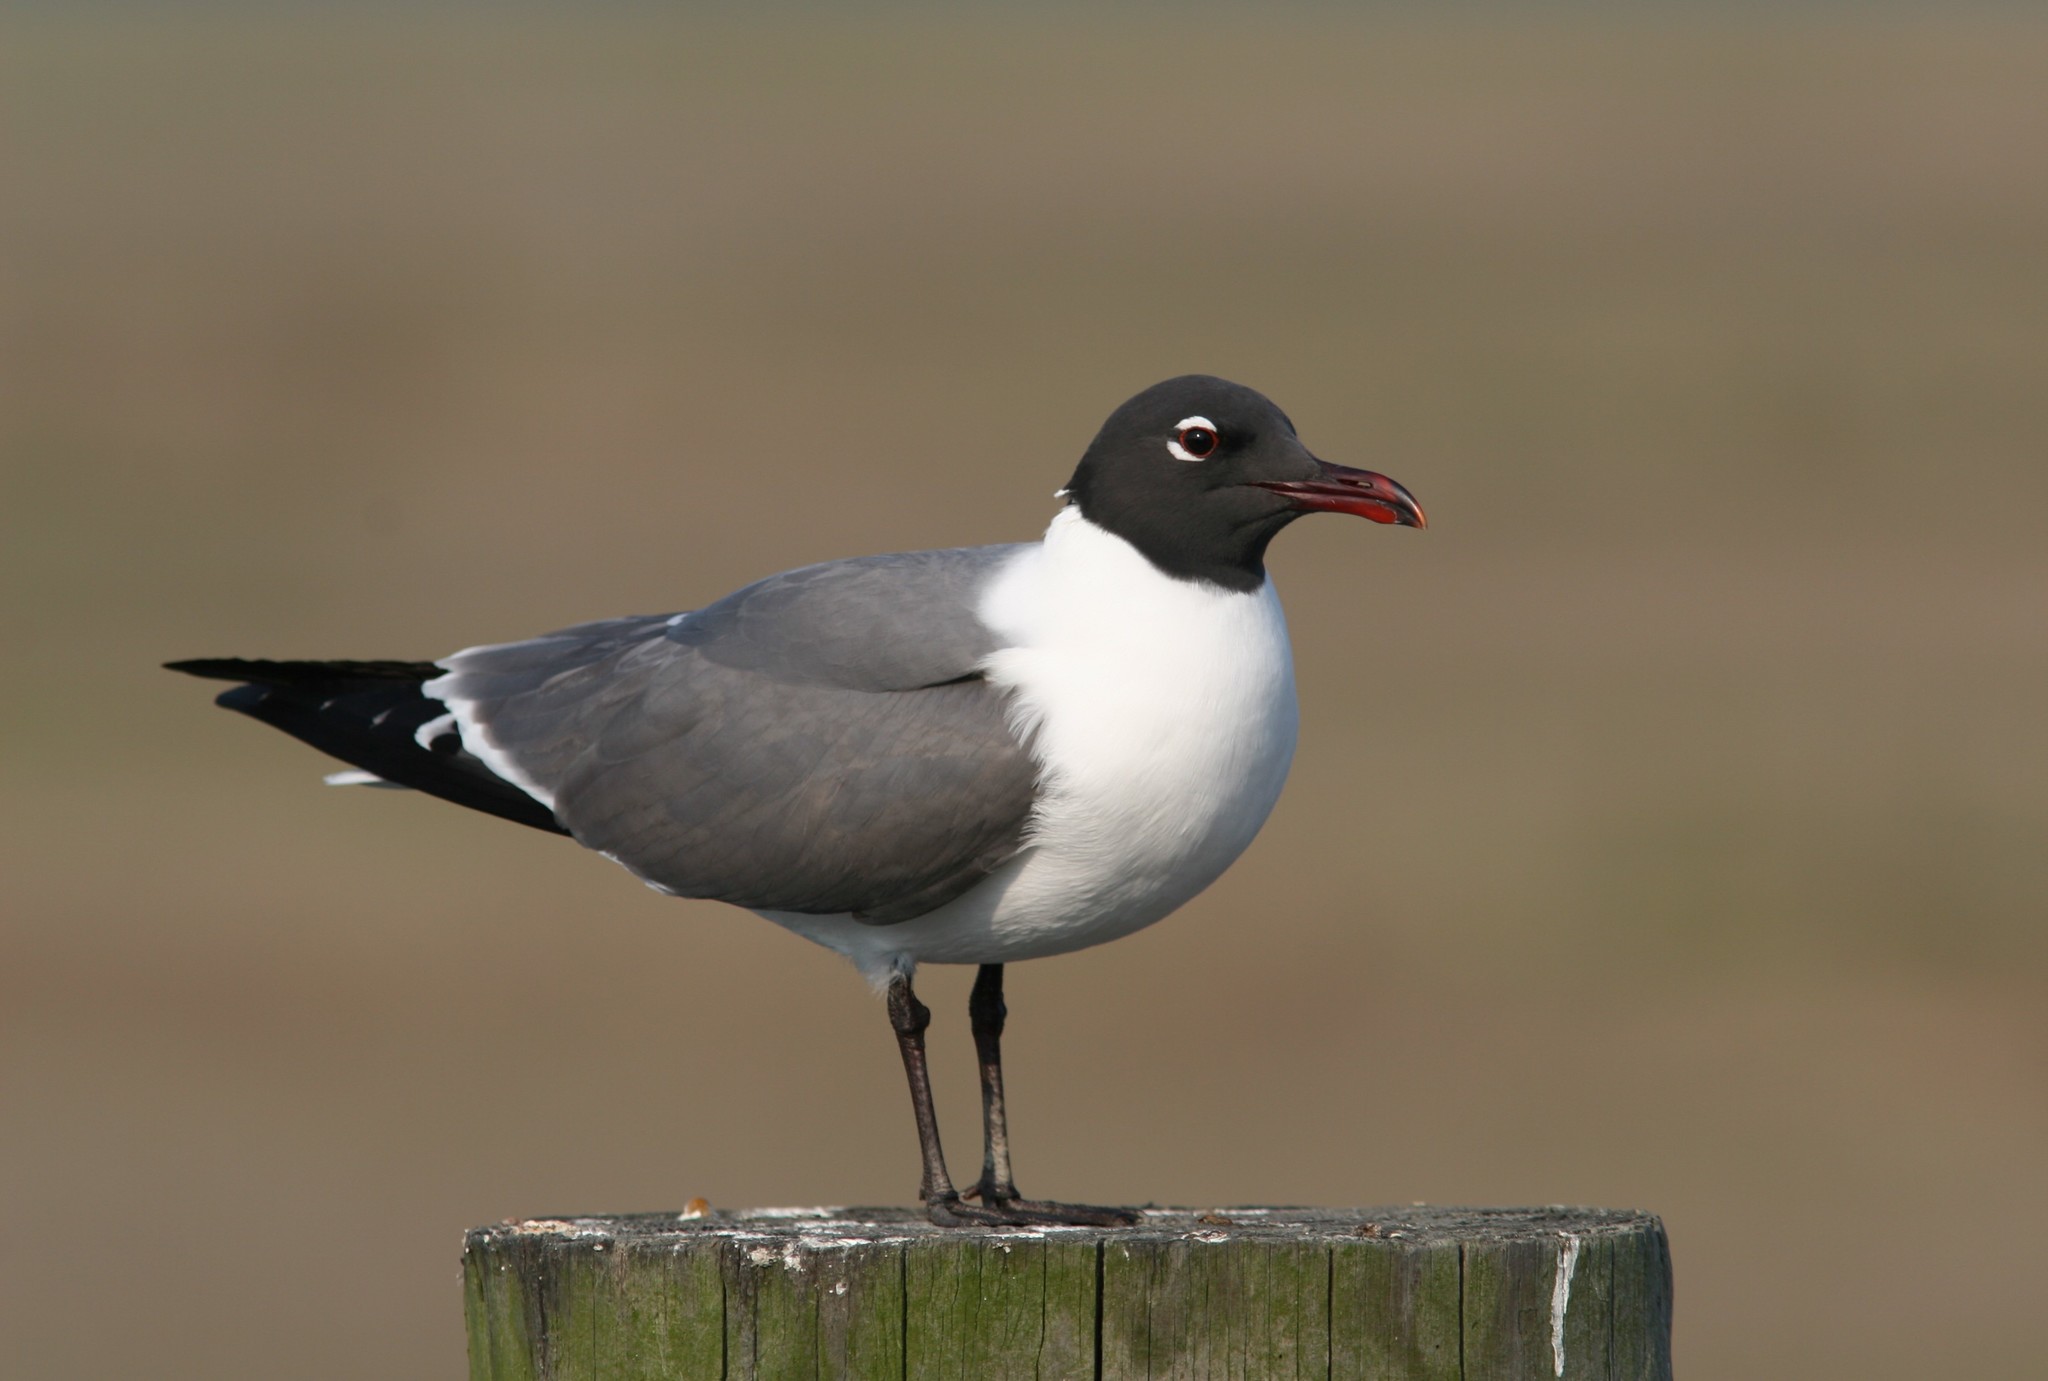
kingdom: Animalia
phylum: Chordata
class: Aves
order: Charadriiformes
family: Laridae
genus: Leucophaeus
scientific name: Leucophaeus atricilla
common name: Laughing gull
